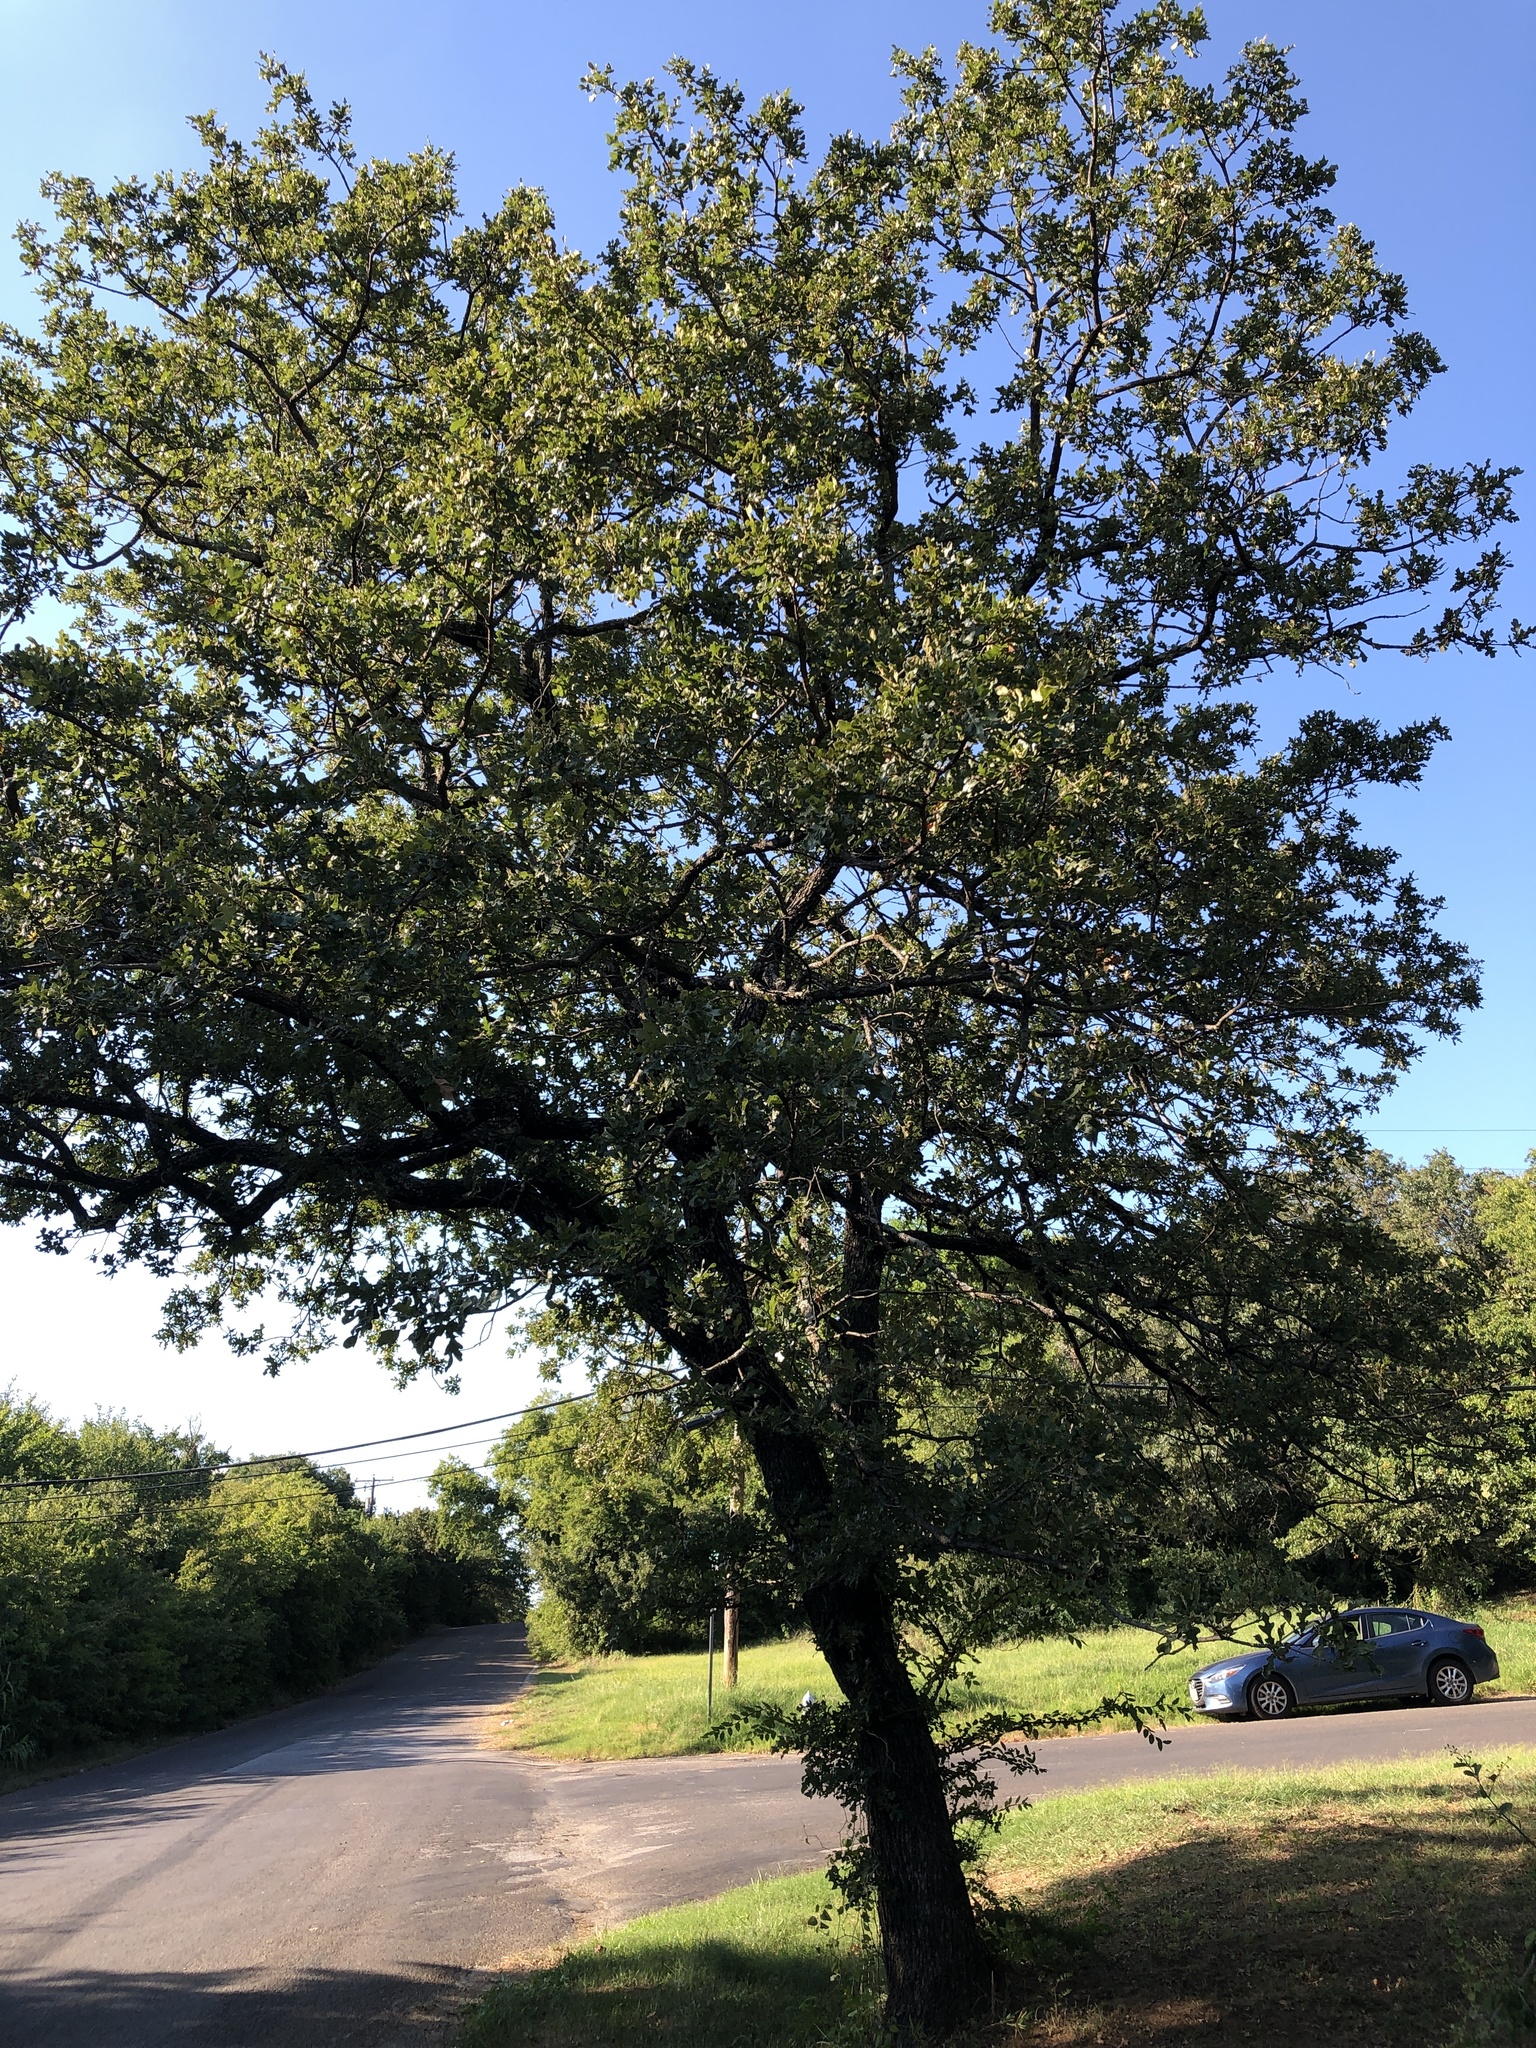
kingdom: Plantae
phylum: Tracheophyta
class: Magnoliopsida
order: Fagales
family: Fagaceae
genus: Quercus
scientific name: Quercus stellata
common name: Post oak
